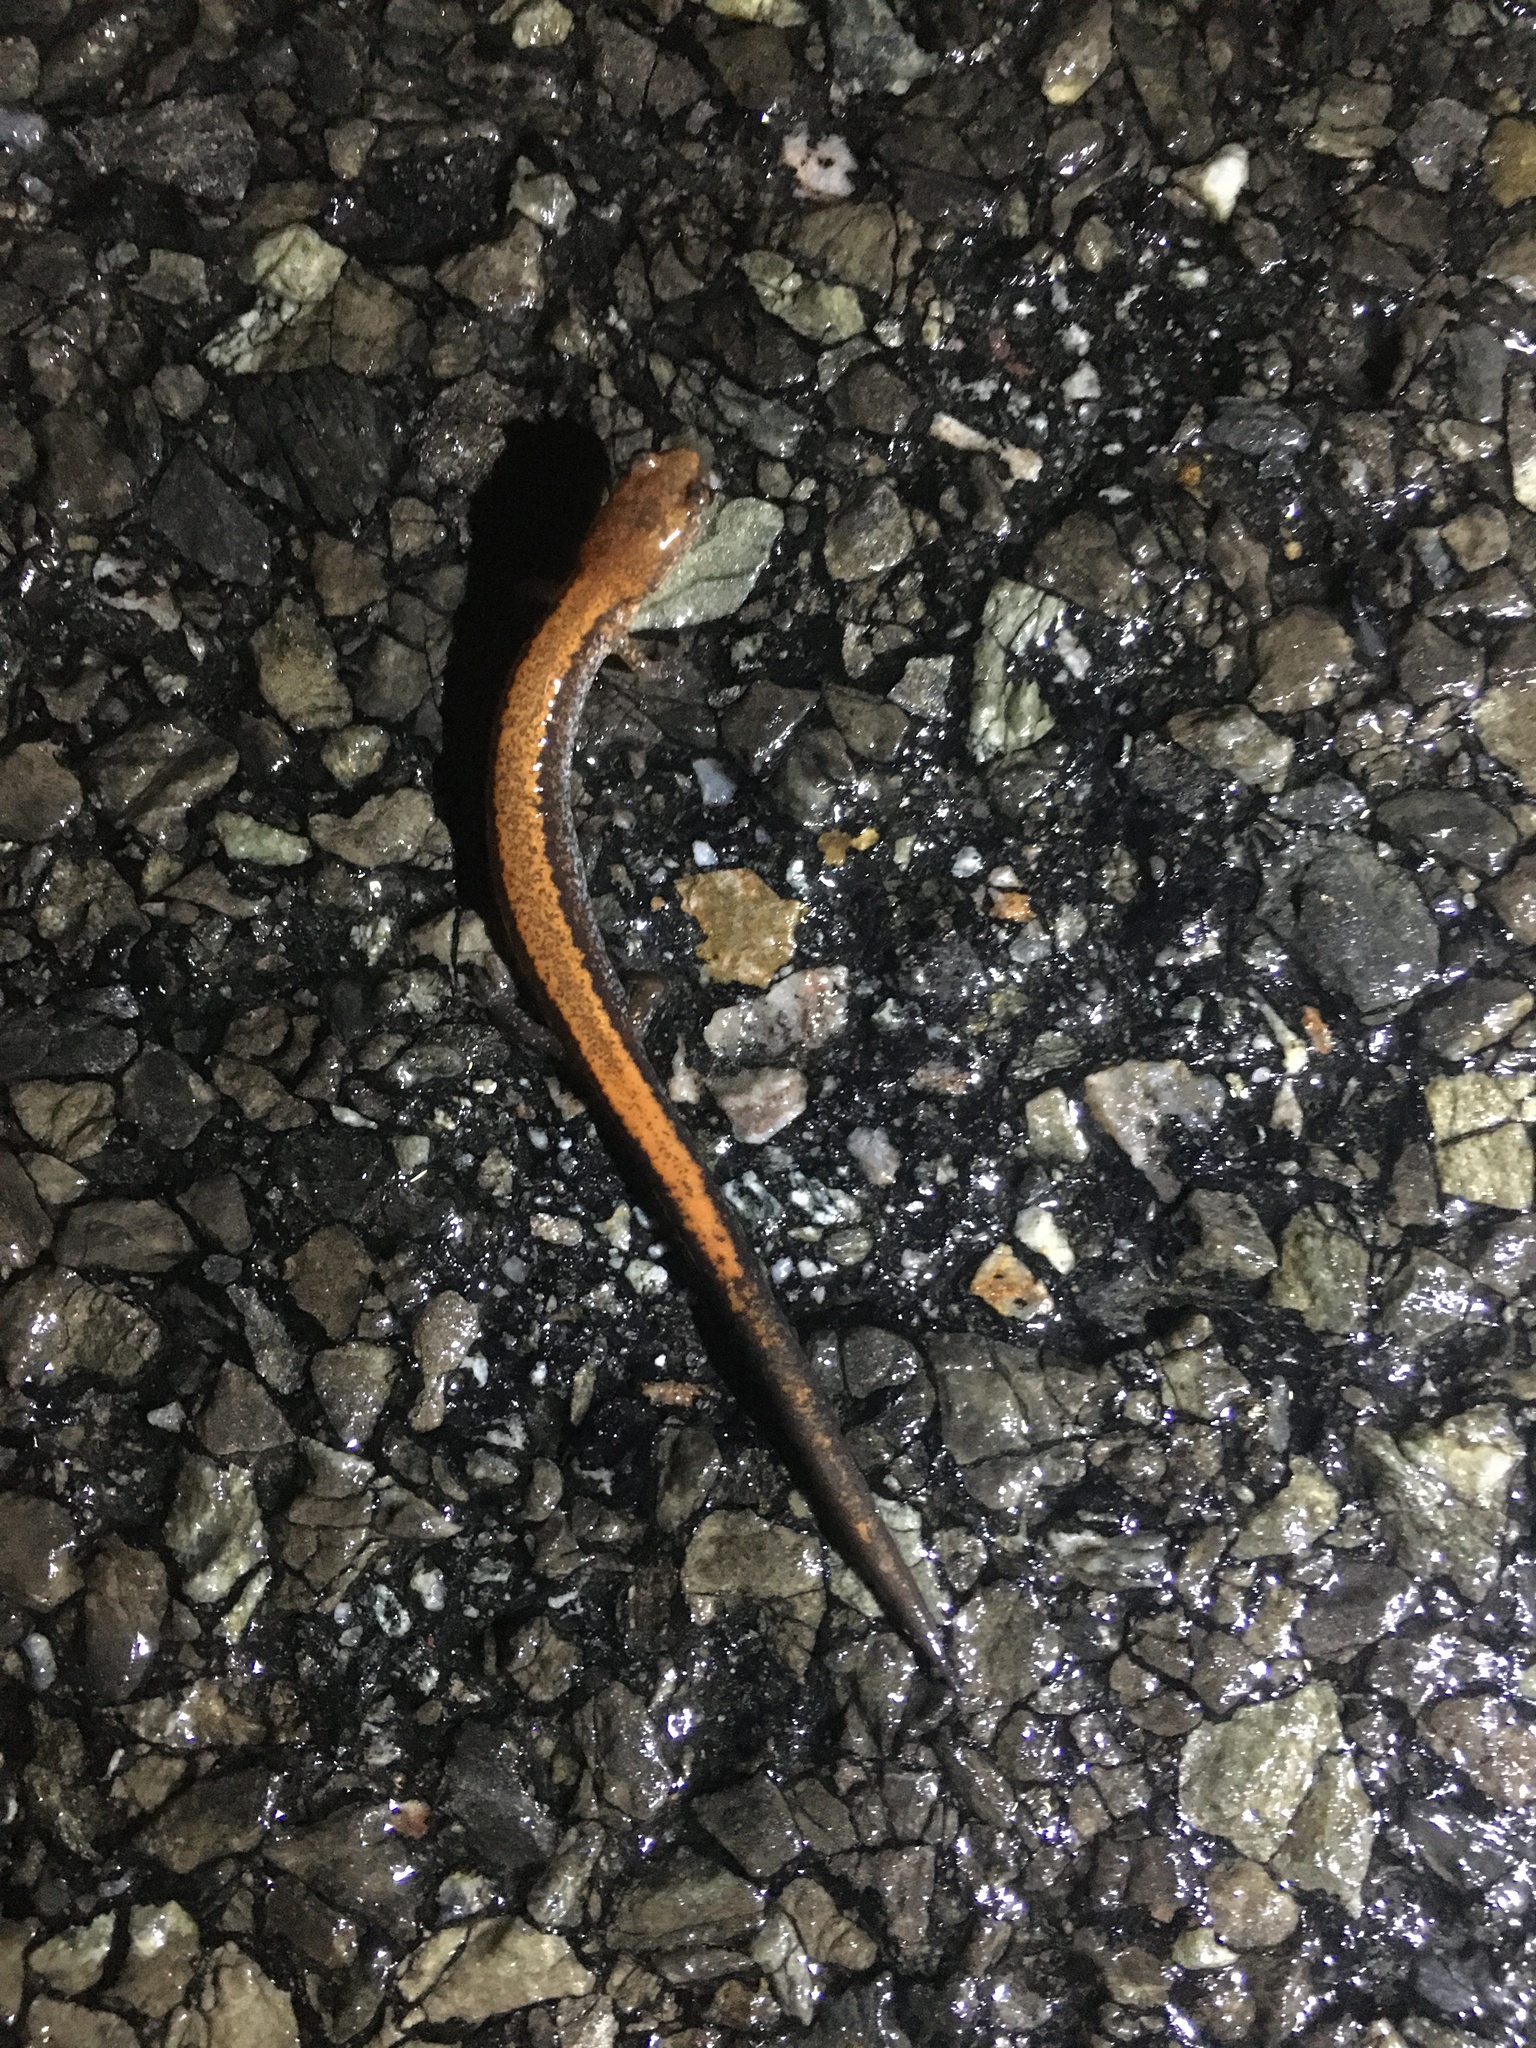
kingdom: Animalia
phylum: Chordata
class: Amphibia
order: Caudata
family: Plethodontidae
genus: Plethodon
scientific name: Plethodon cinereus
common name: Redback salamander
